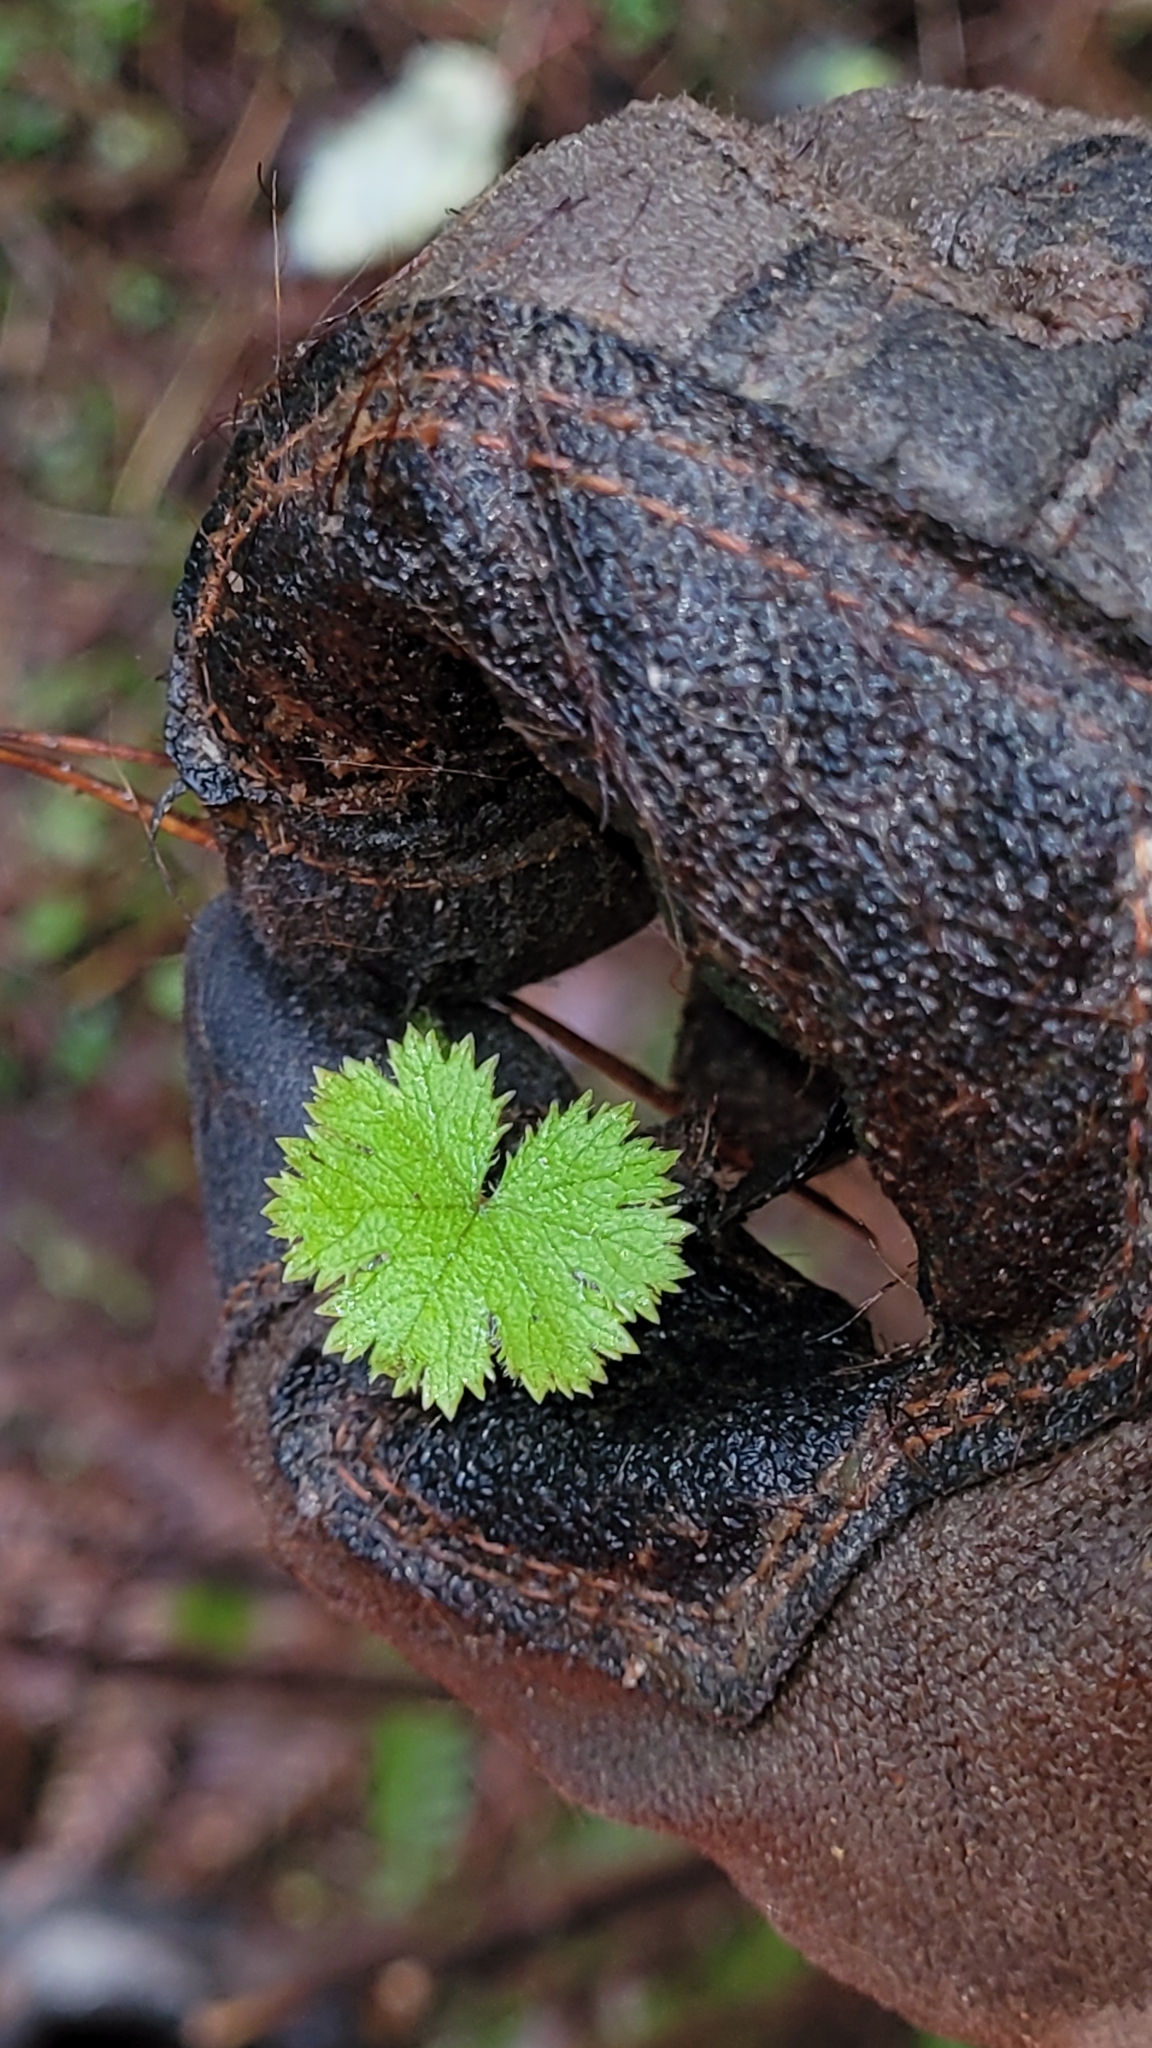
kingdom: Plantae
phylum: Tracheophyta
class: Magnoliopsida
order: Apiales
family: Araliaceae
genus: Hydrocotyle
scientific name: Hydrocotyle moschata
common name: Hairy pennywort
